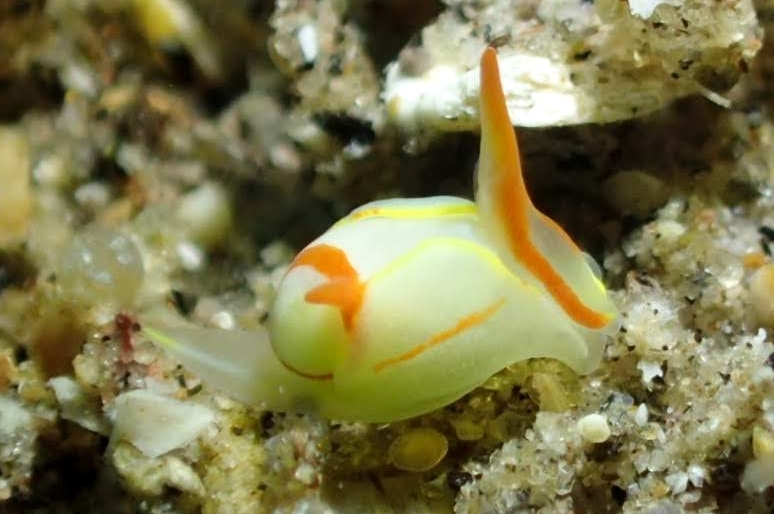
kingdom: Animalia
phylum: Mollusca
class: Gastropoda
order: Cephalaspidea
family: Gastropteridae
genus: Siphopteron
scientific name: Siphopteron makisig
